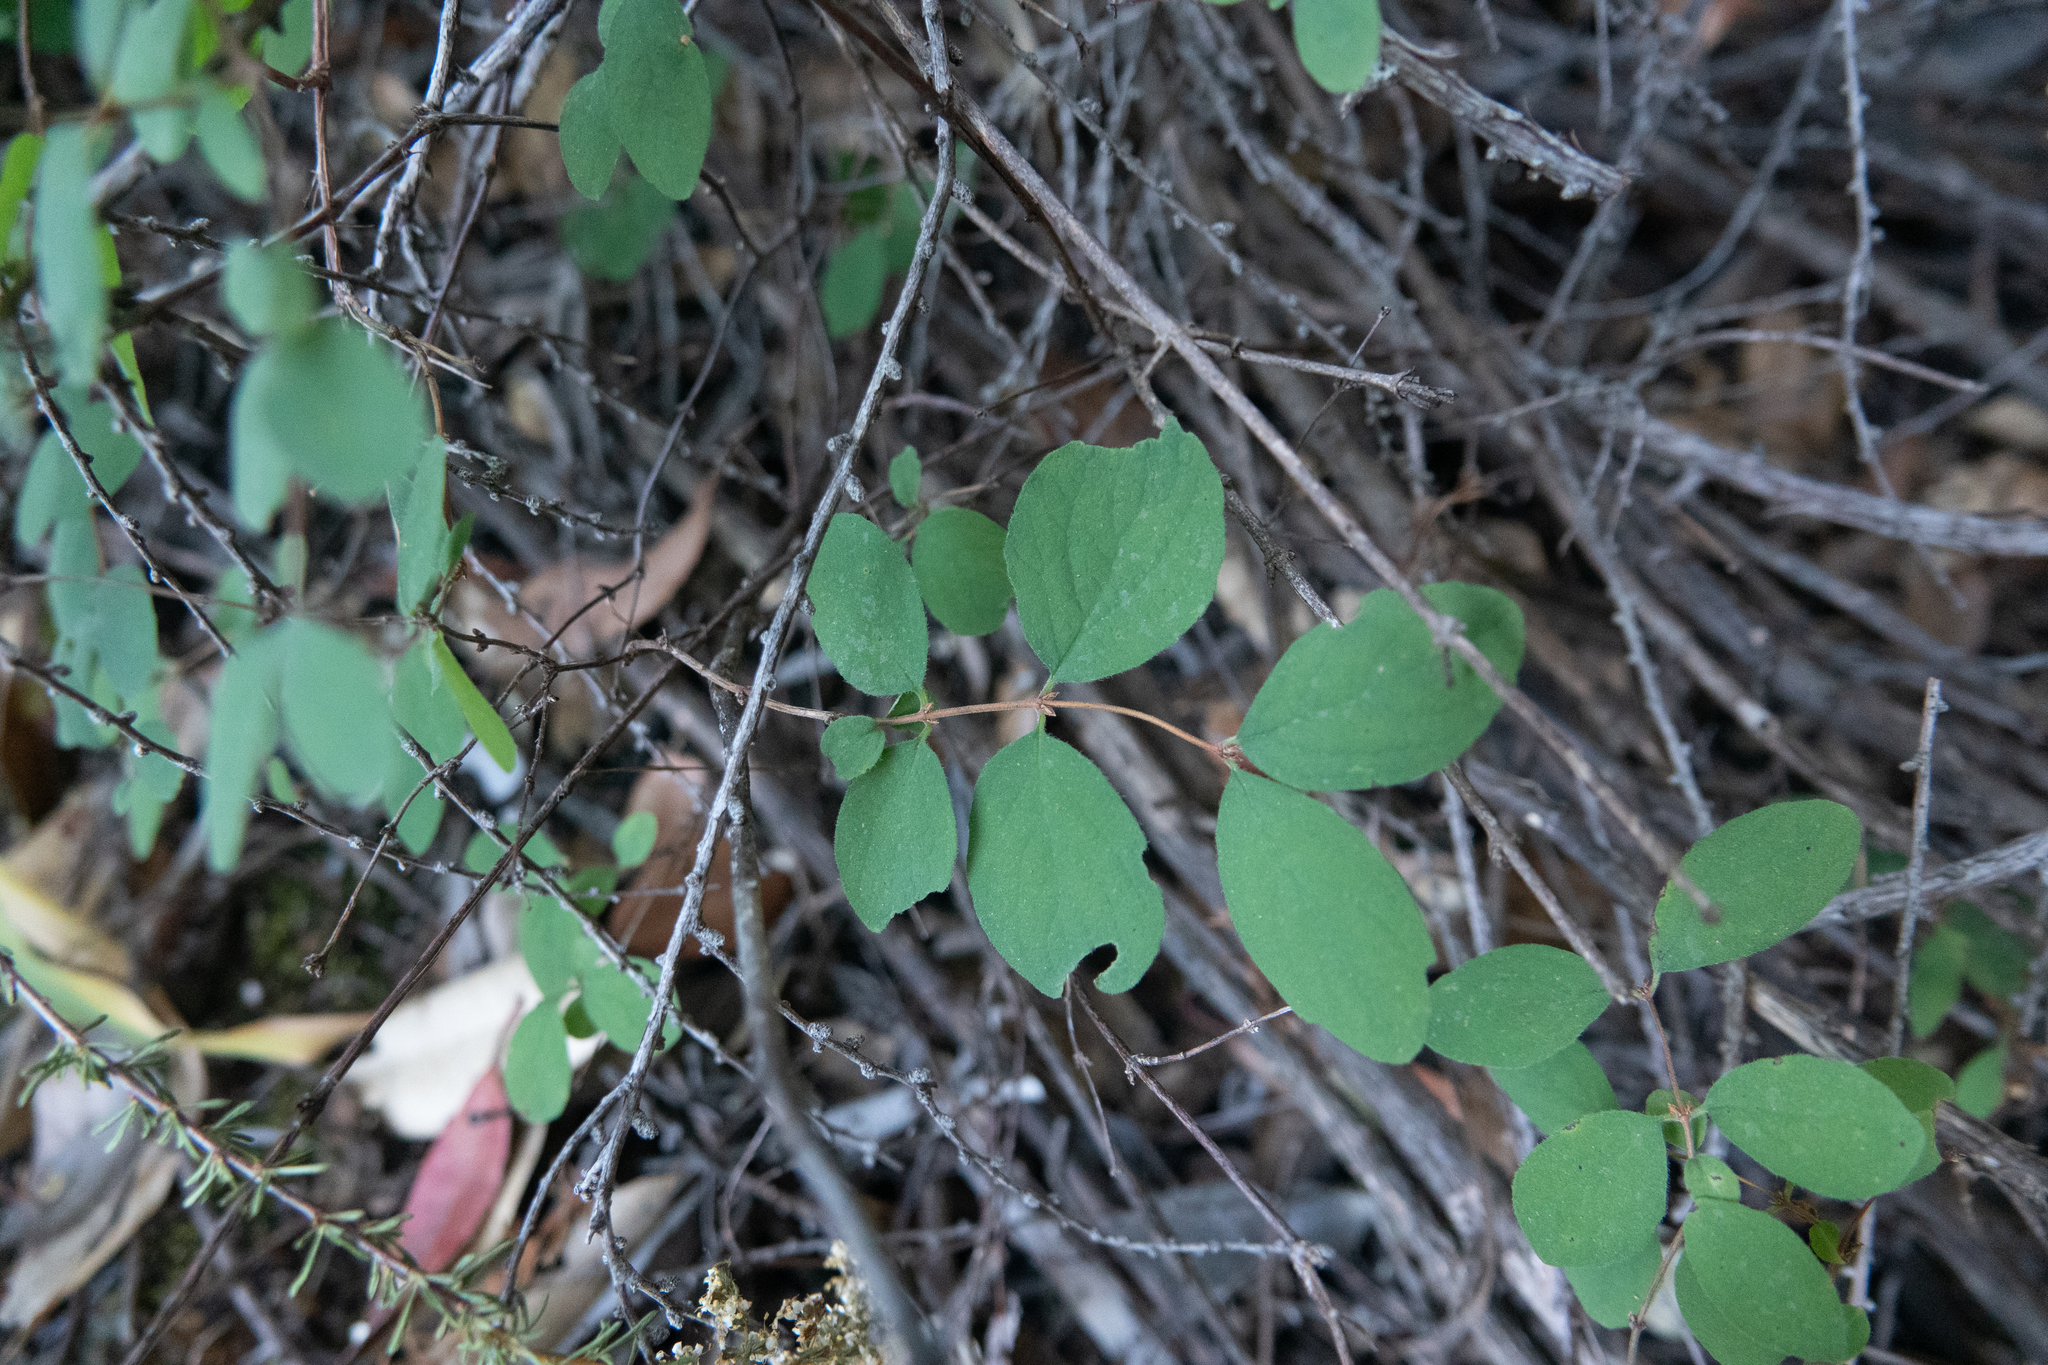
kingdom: Plantae
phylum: Tracheophyta
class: Magnoliopsida
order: Dipsacales
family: Caprifoliaceae
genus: Symphoricarpos
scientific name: Symphoricarpos mollis
